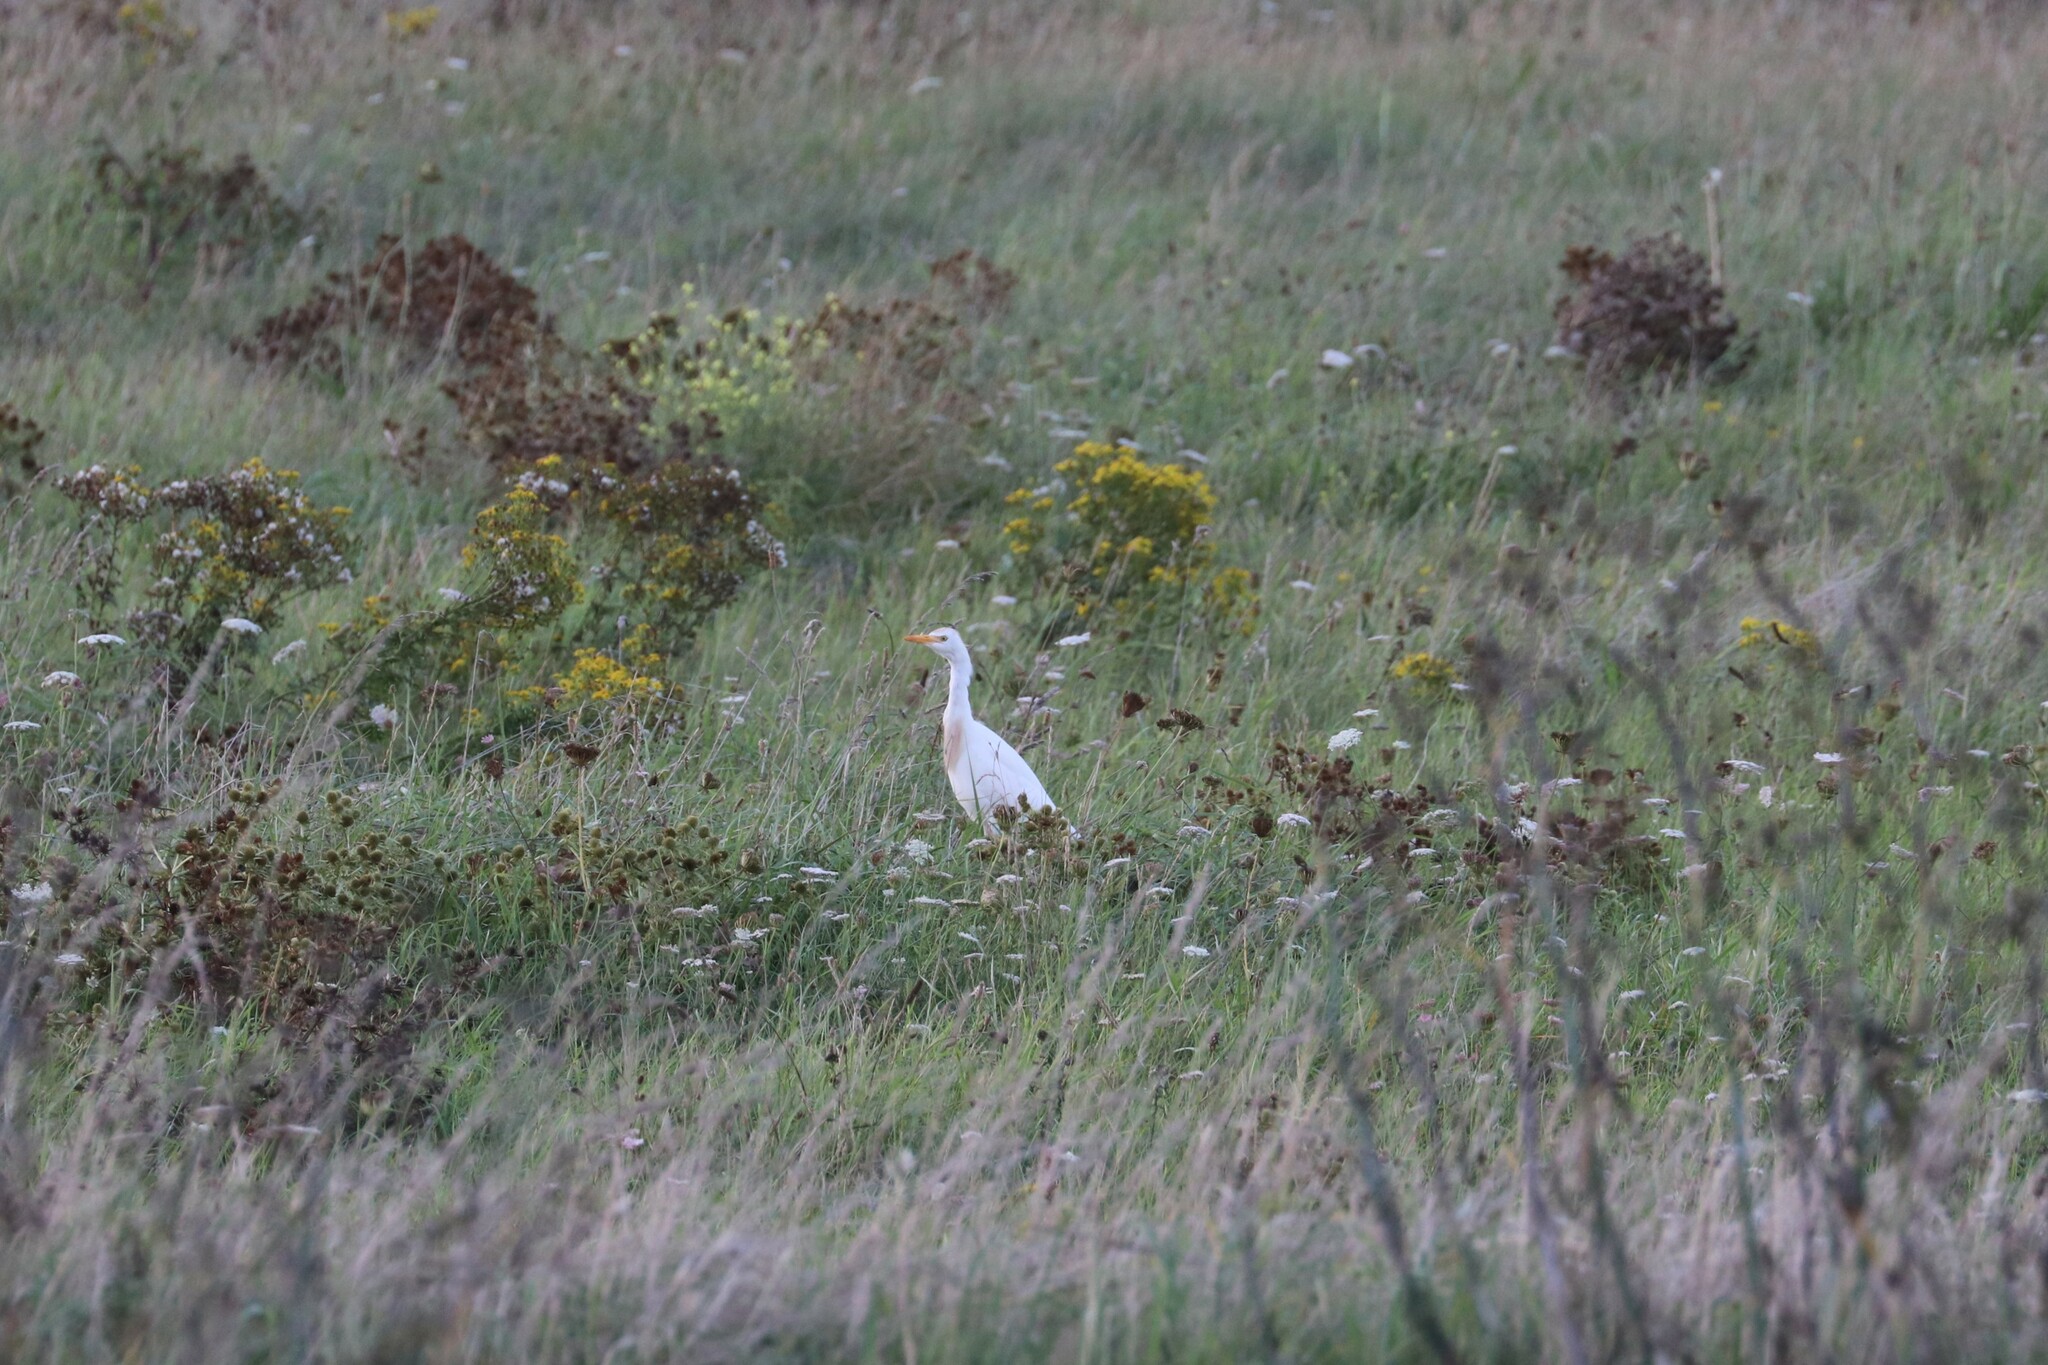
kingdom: Animalia
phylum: Chordata
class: Aves
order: Pelecaniformes
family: Ardeidae
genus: Bubulcus
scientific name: Bubulcus ibis
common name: Cattle egret
